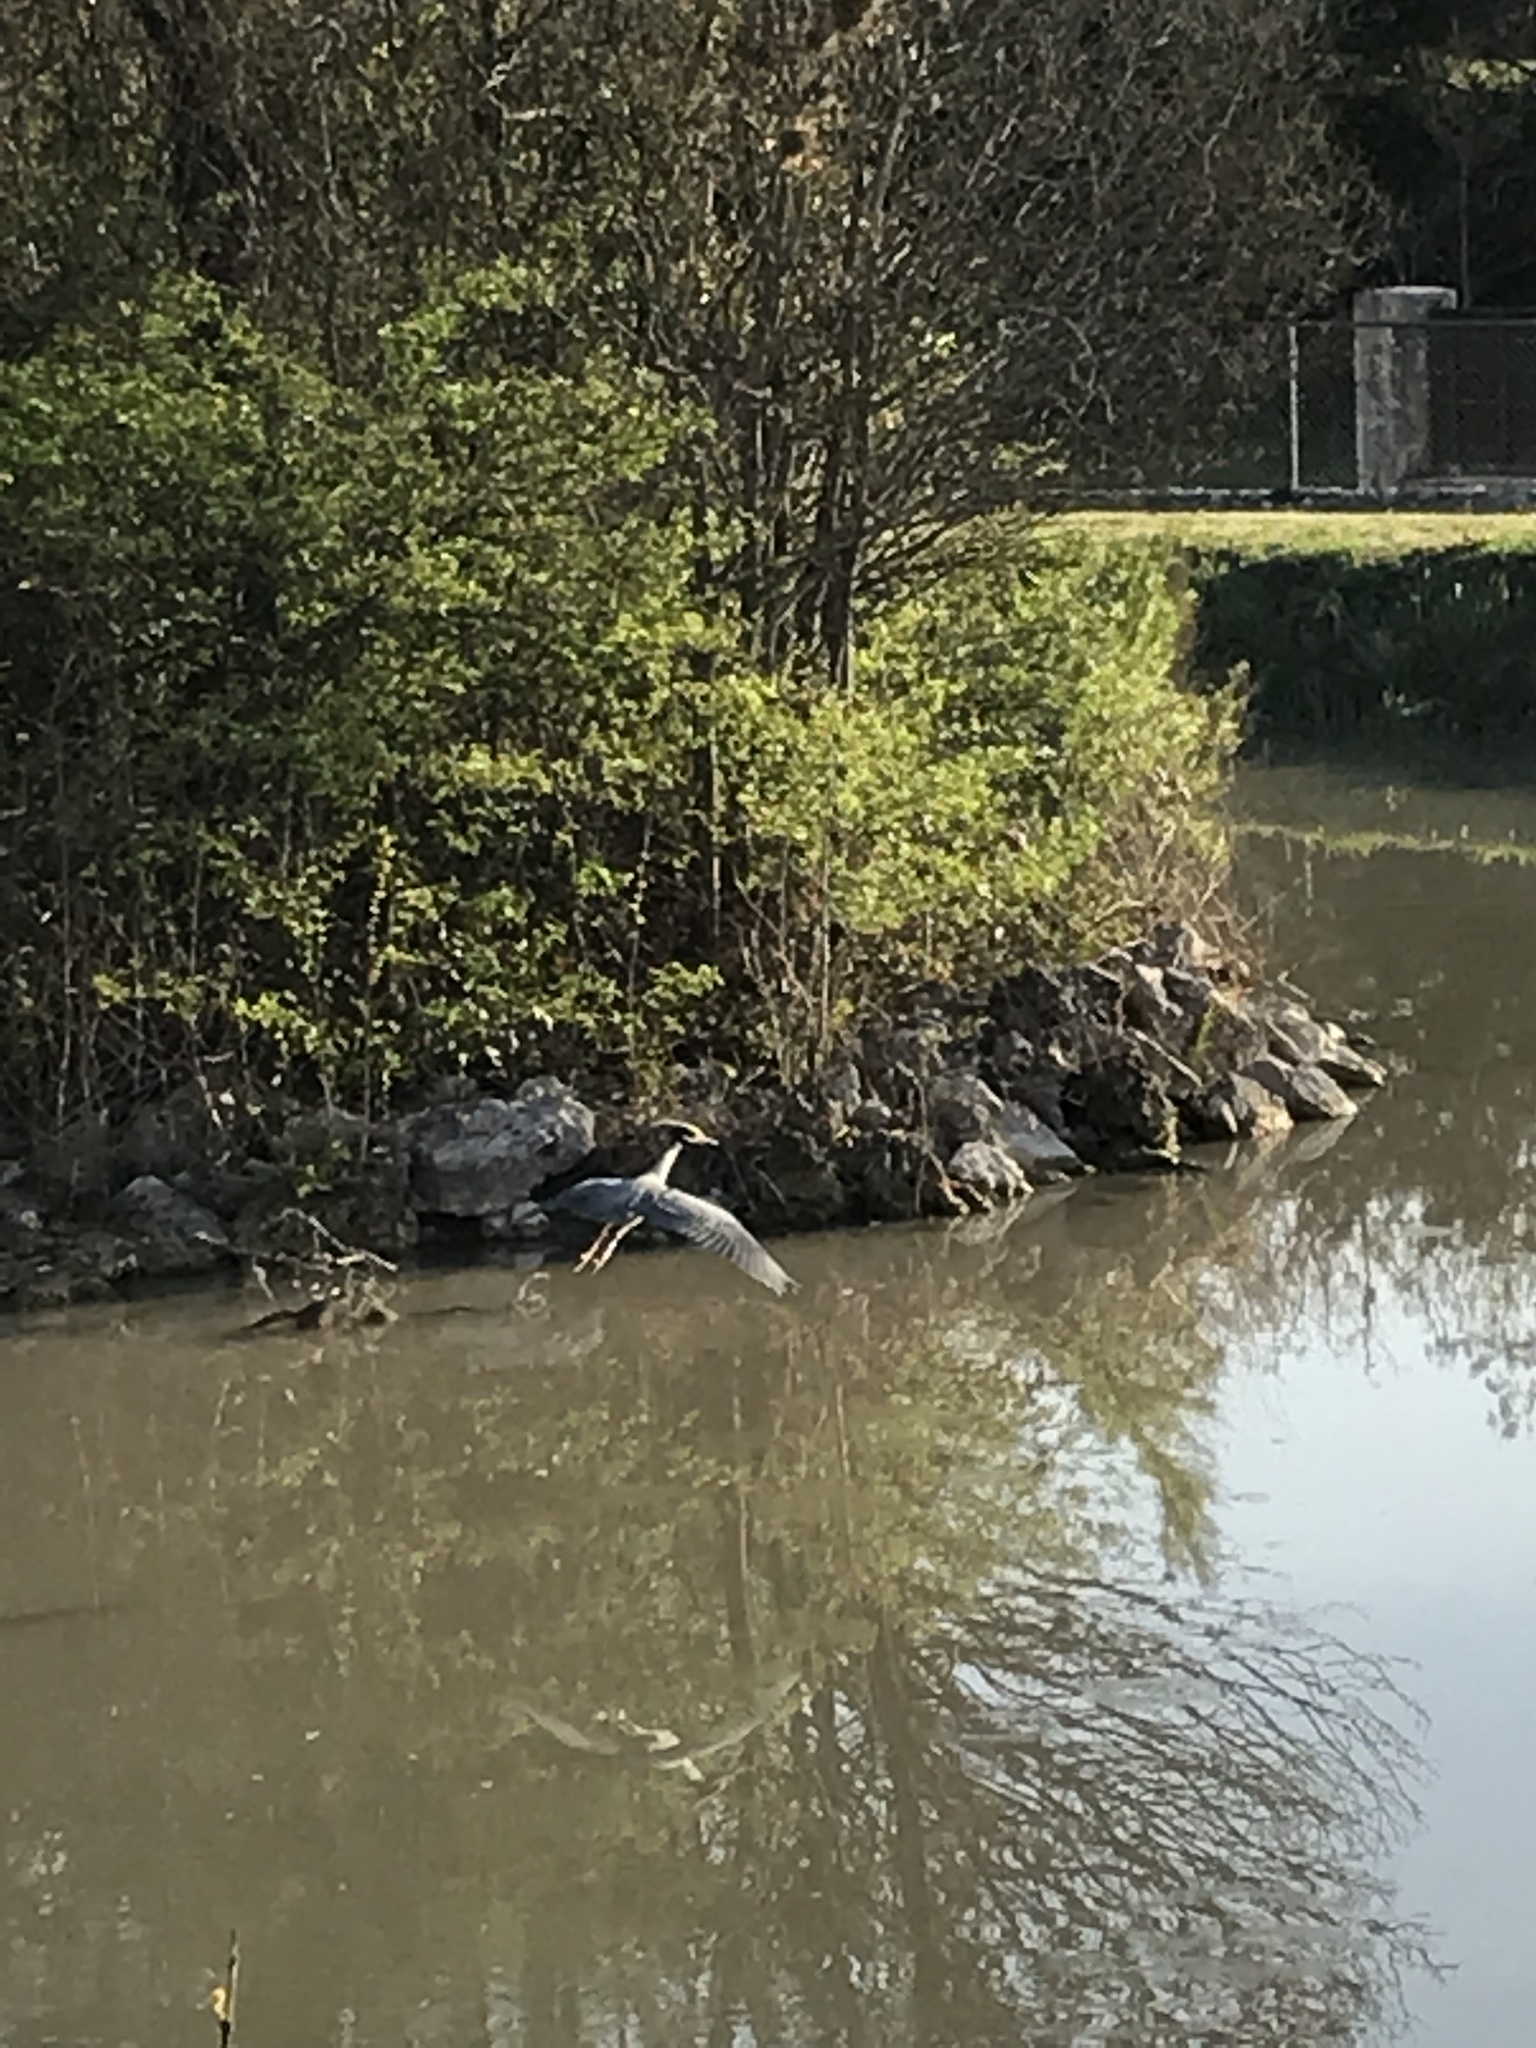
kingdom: Animalia
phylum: Chordata
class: Aves
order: Pelecaniformes
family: Ardeidae
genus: Nyctanassa
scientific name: Nyctanassa violacea
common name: Yellow-crowned night heron
